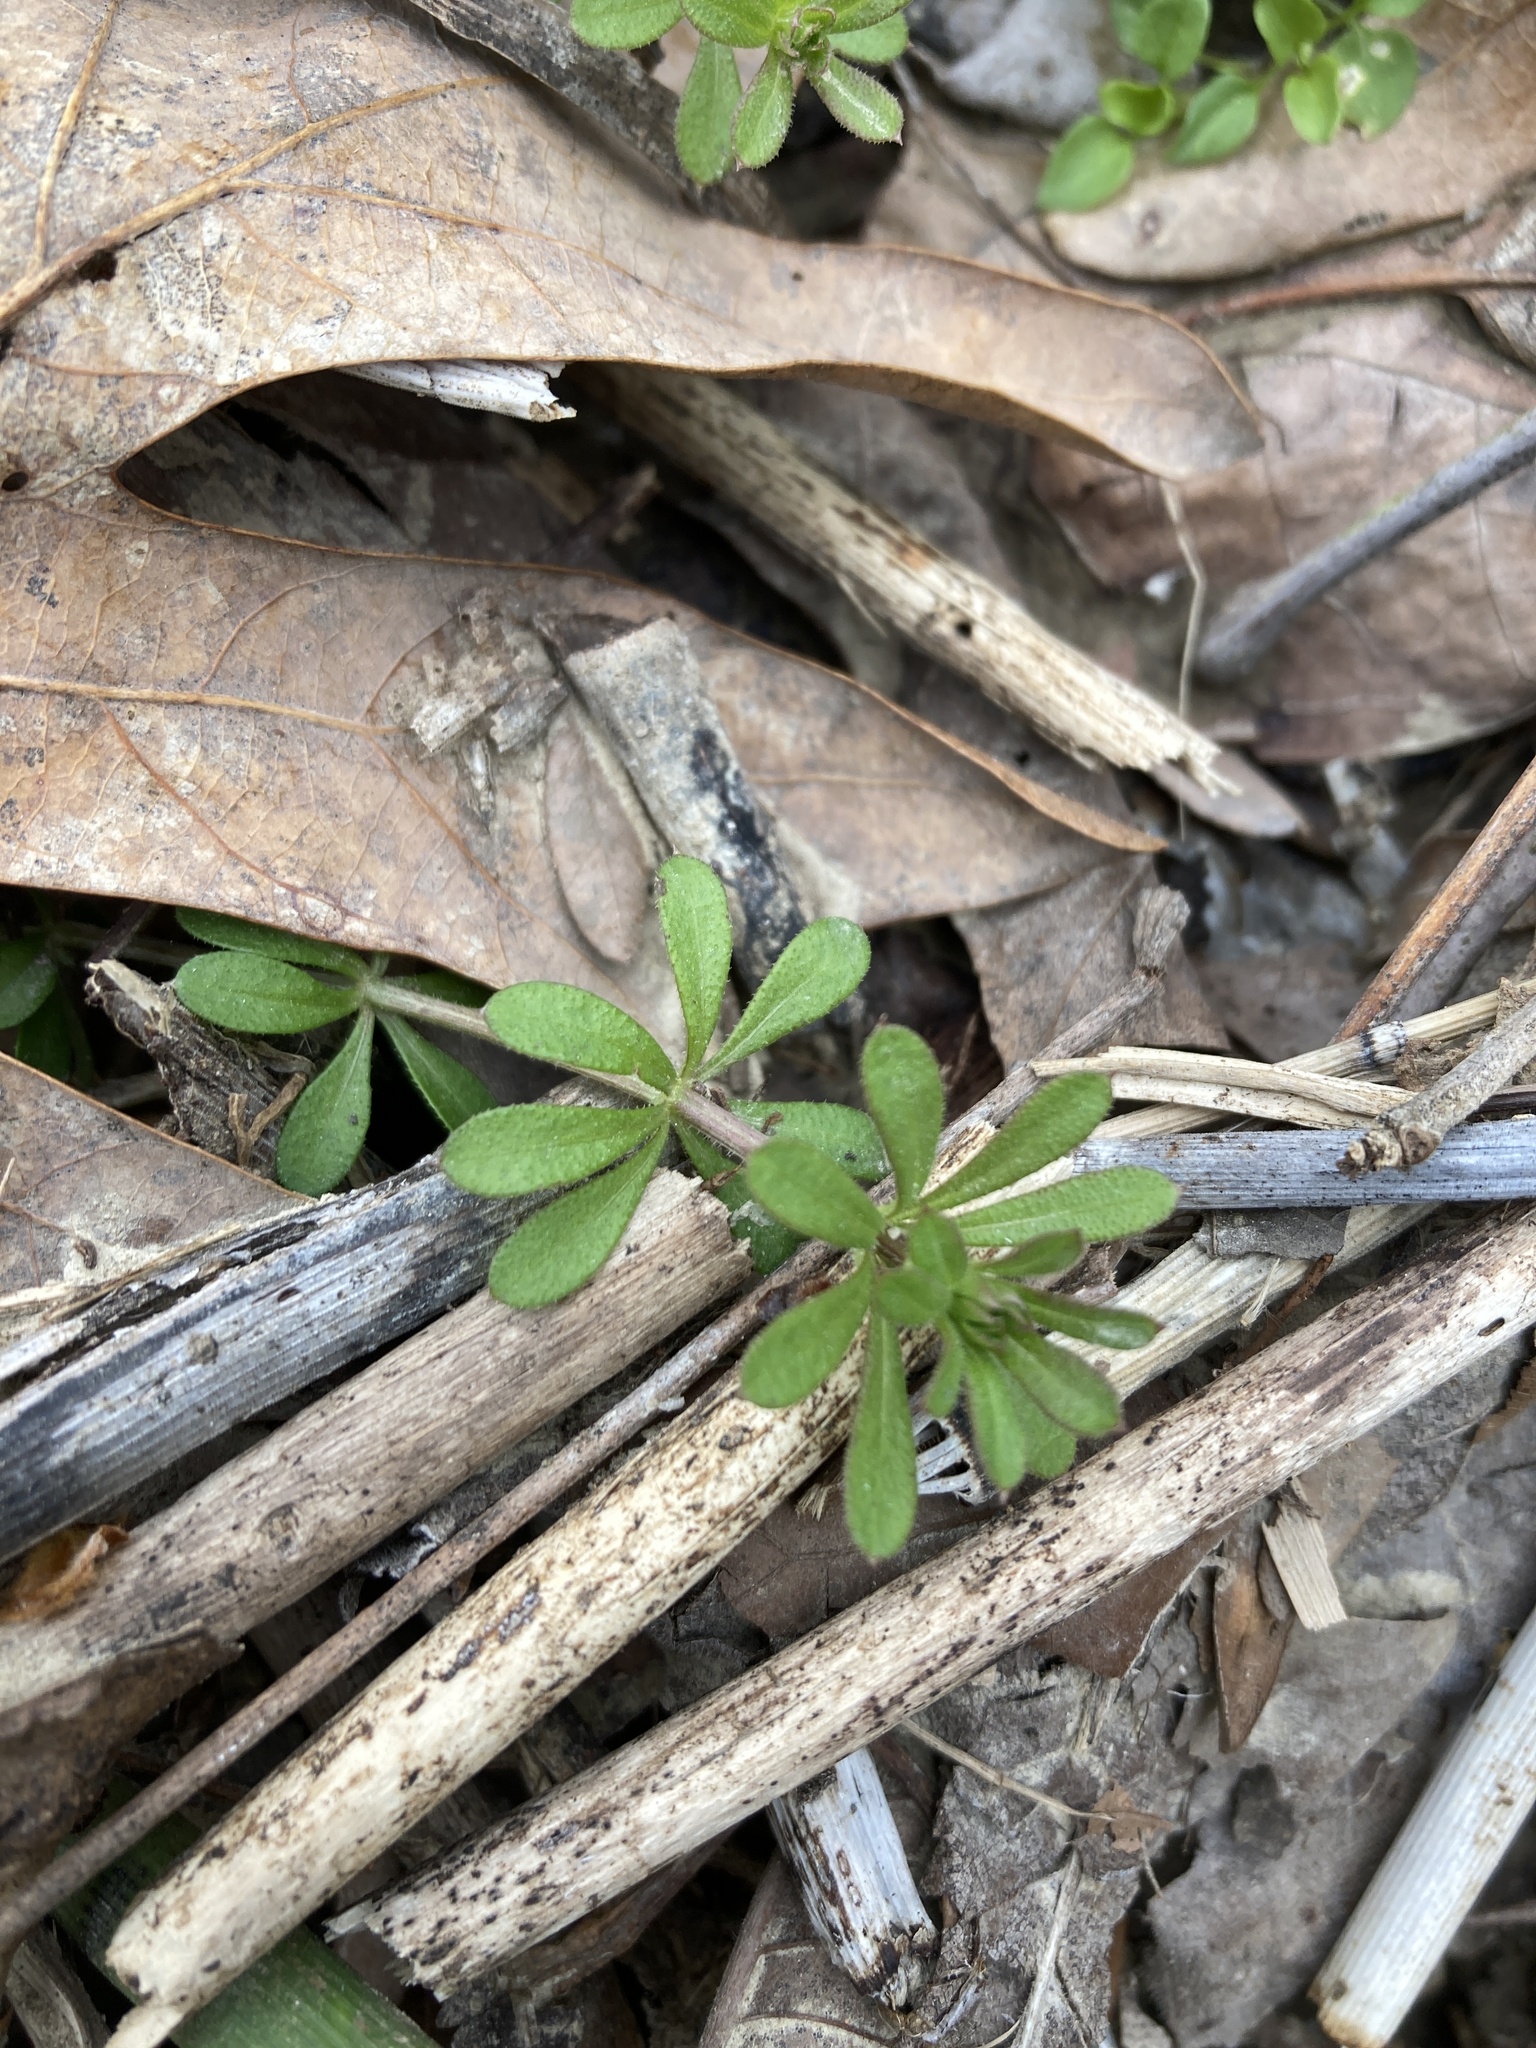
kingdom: Plantae
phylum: Tracheophyta
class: Magnoliopsida
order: Gentianales
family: Rubiaceae
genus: Galium
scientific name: Galium aparine
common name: Cleavers
